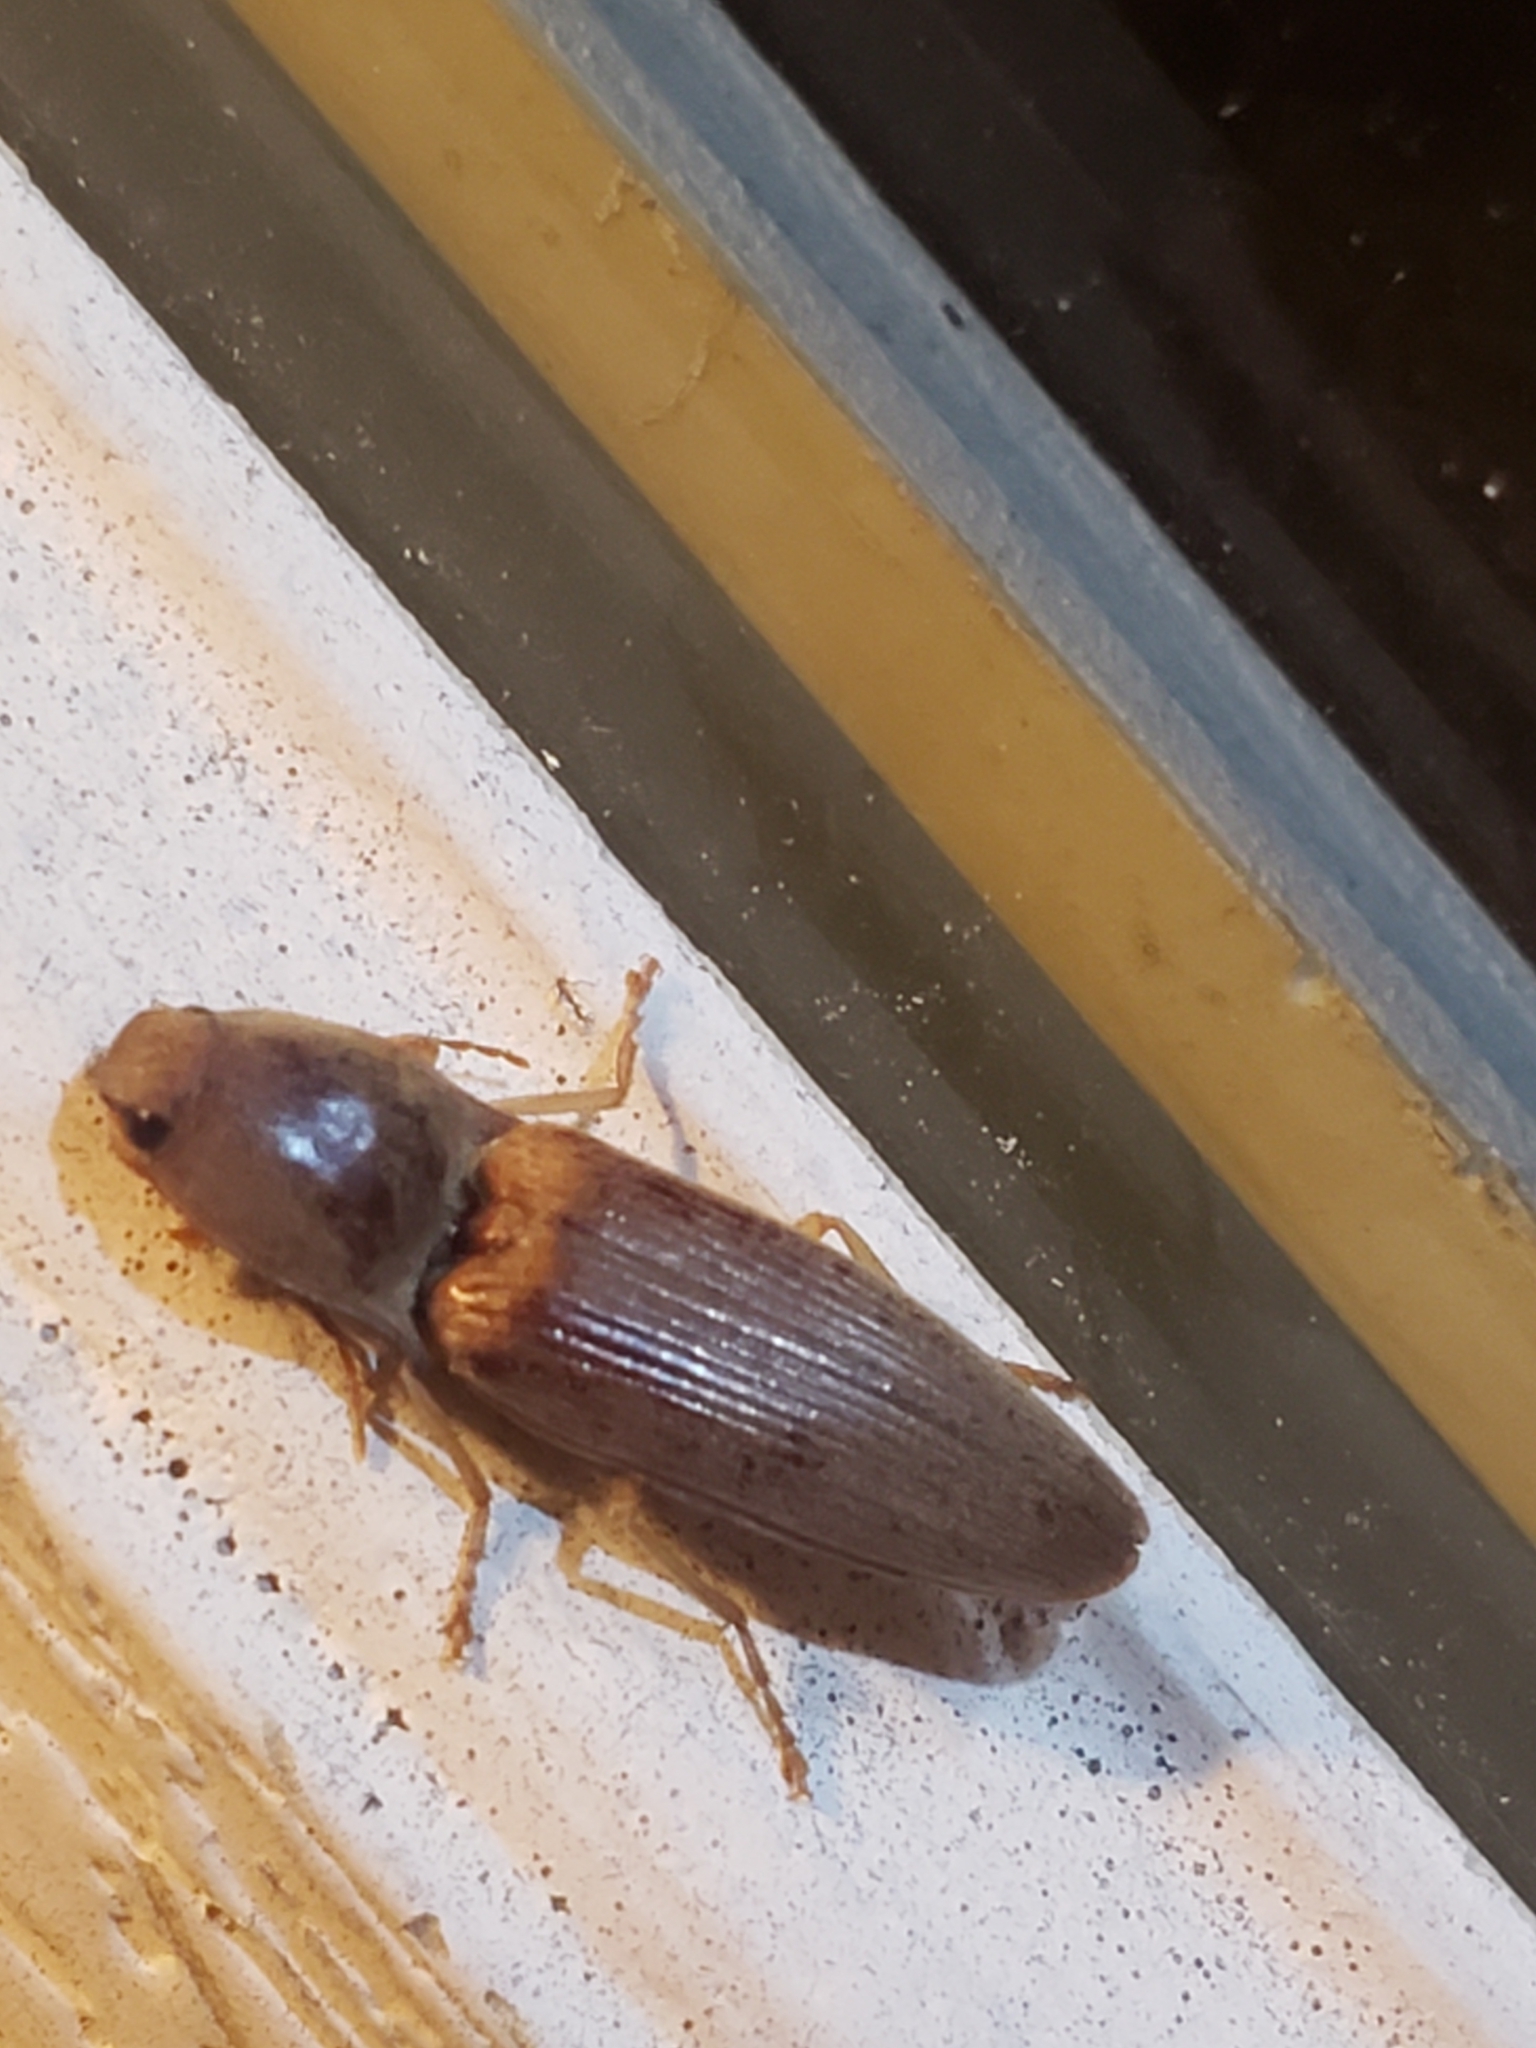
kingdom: Animalia
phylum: Arthropoda
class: Insecta
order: Coleoptera
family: Elateridae
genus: Monocrepidius
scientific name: Monocrepidius lividus
